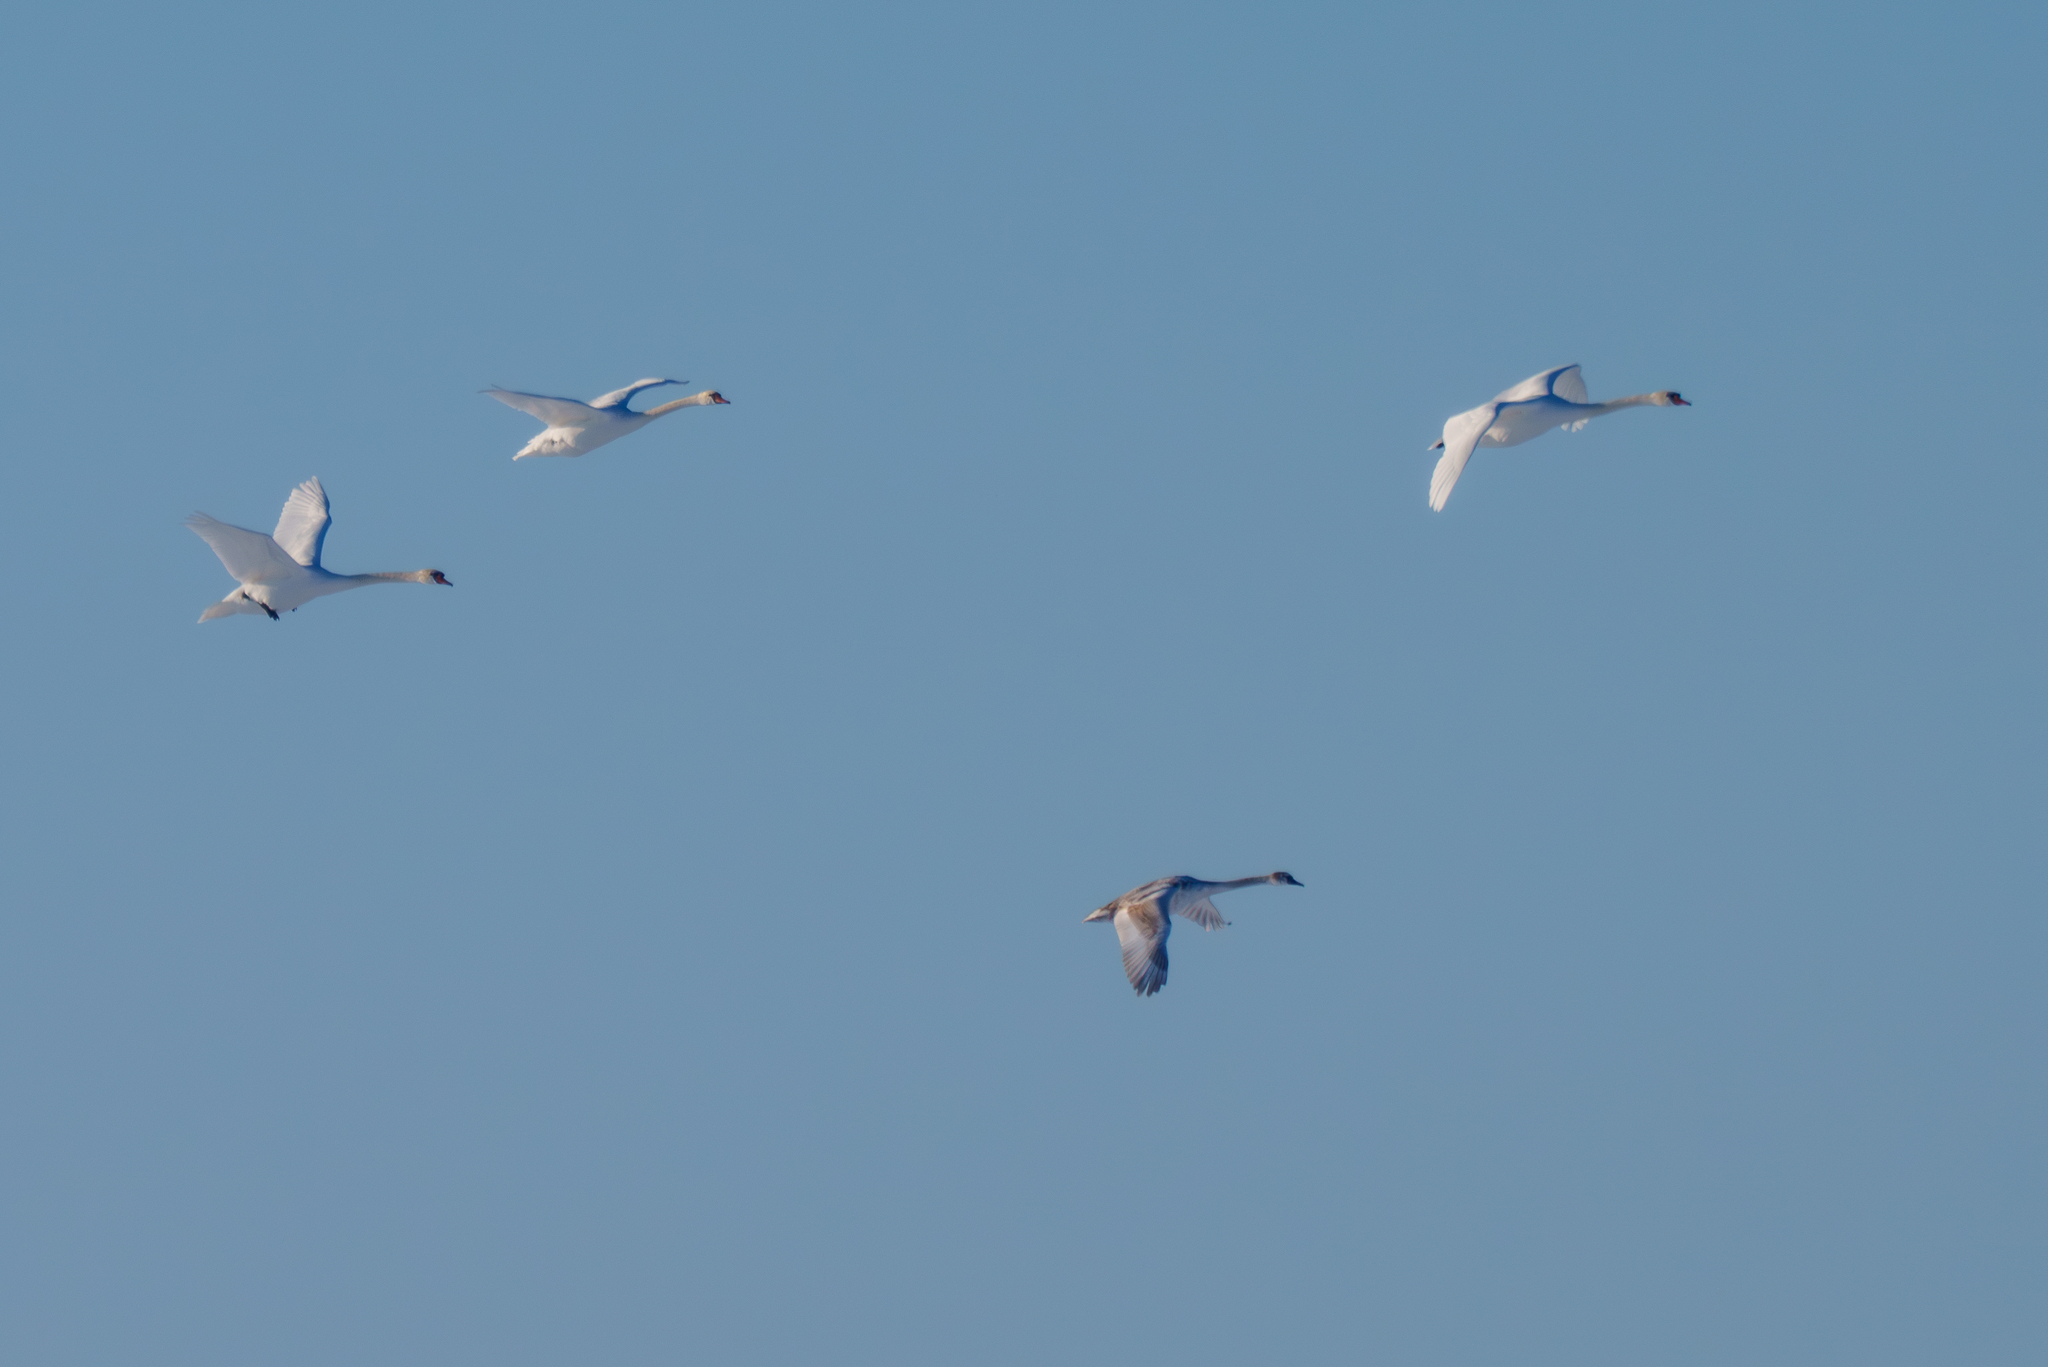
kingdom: Animalia
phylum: Chordata
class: Aves
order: Anseriformes
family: Anatidae
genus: Cygnus
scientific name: Cygnus olor
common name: Mute swan
